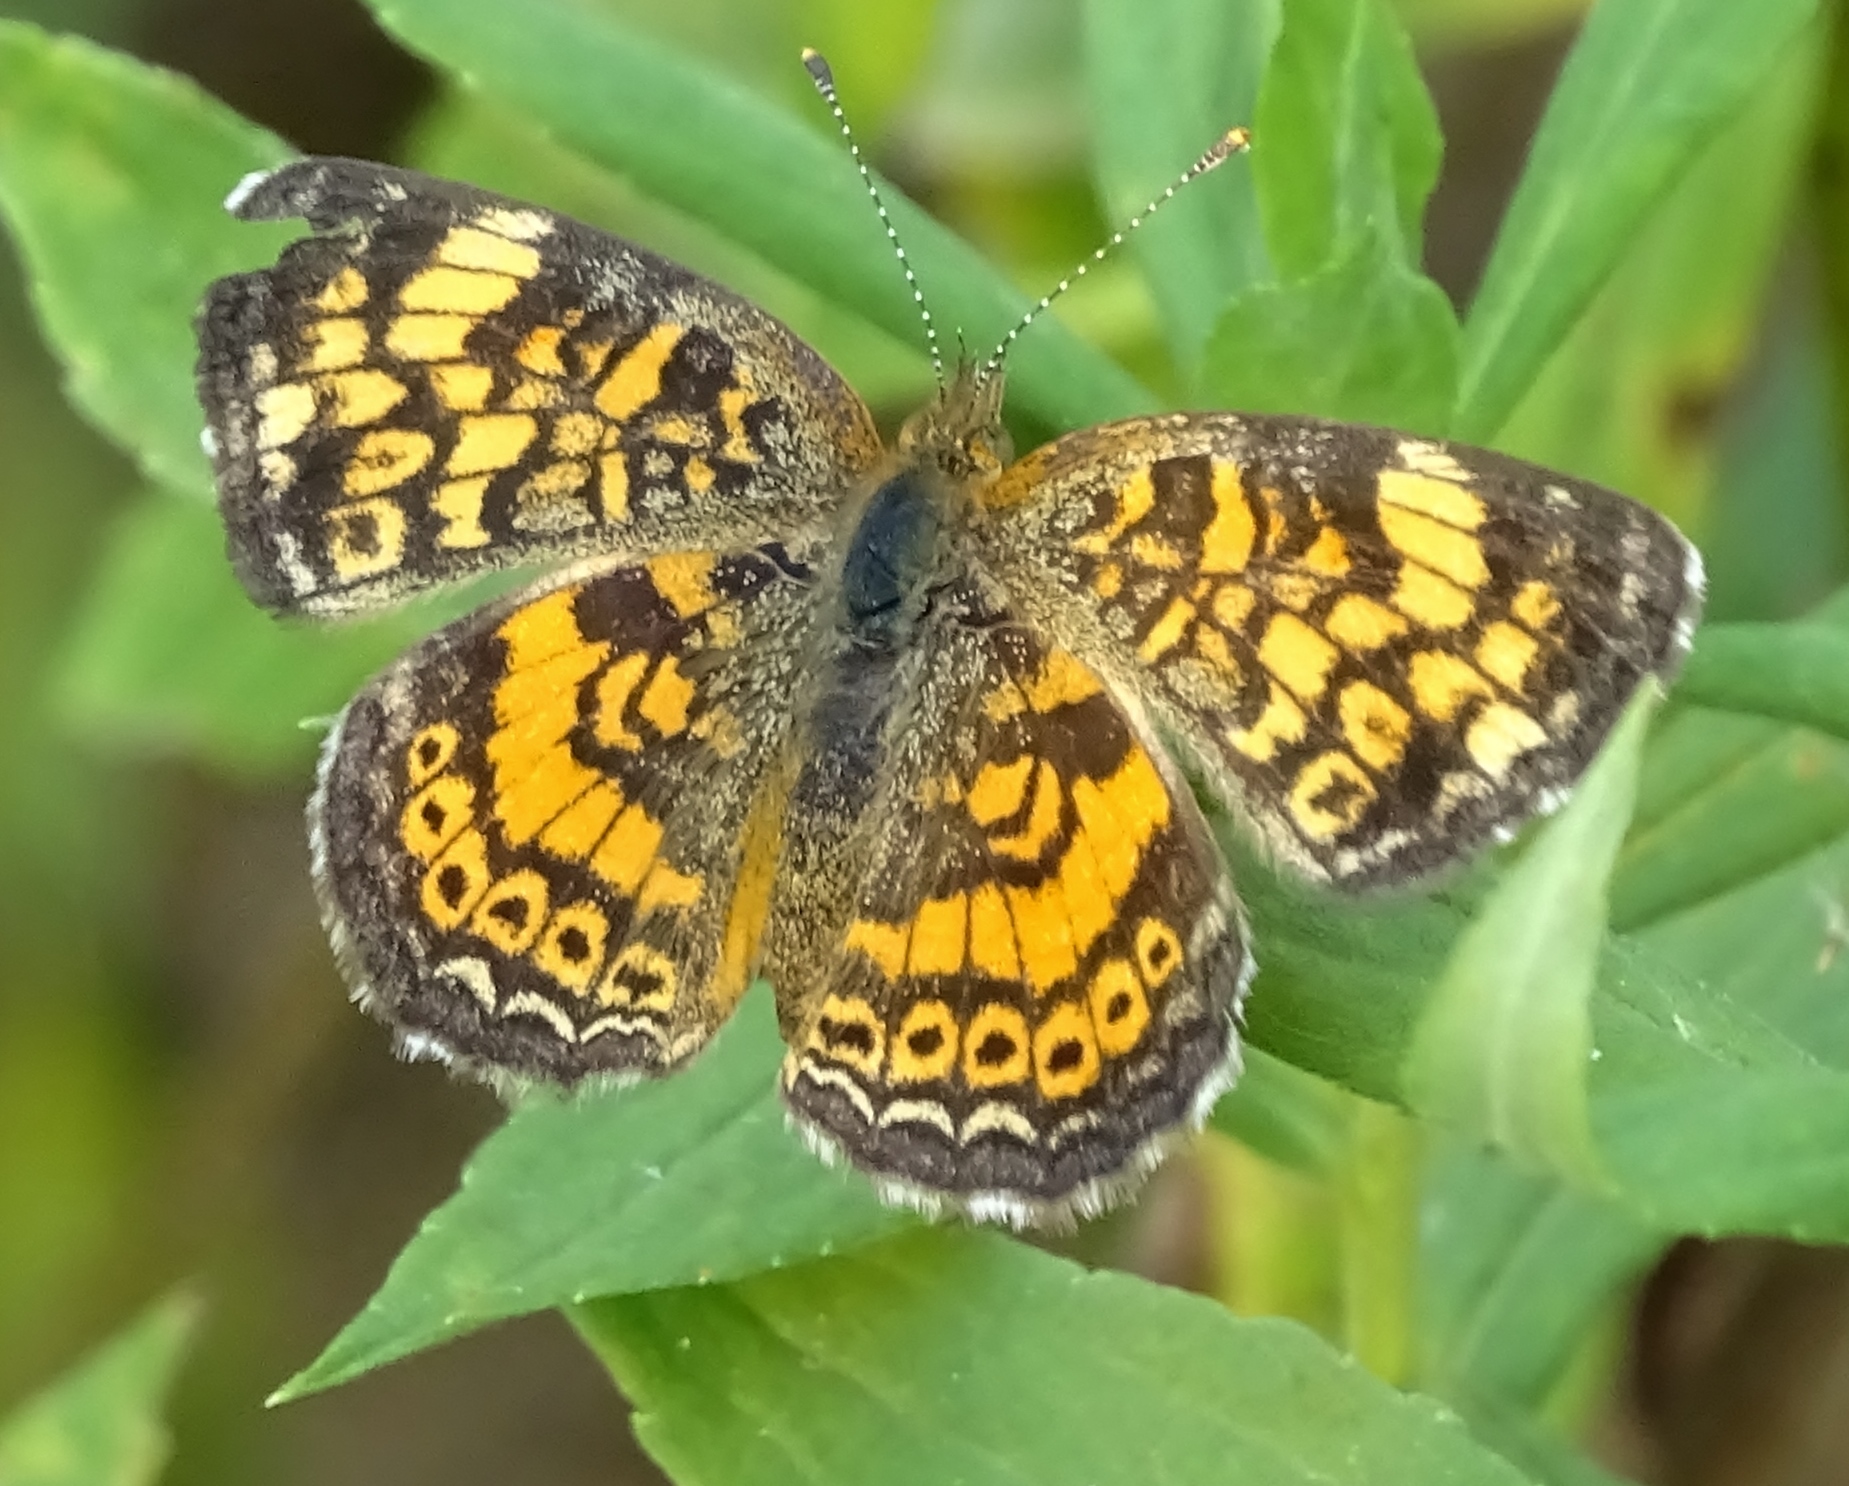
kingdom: Animalia
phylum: Arthropoda
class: Insecta
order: Lepidoptera
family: Nymphalidae
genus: Phyciodes
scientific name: Phyciodes tharos
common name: Pearl crescent
